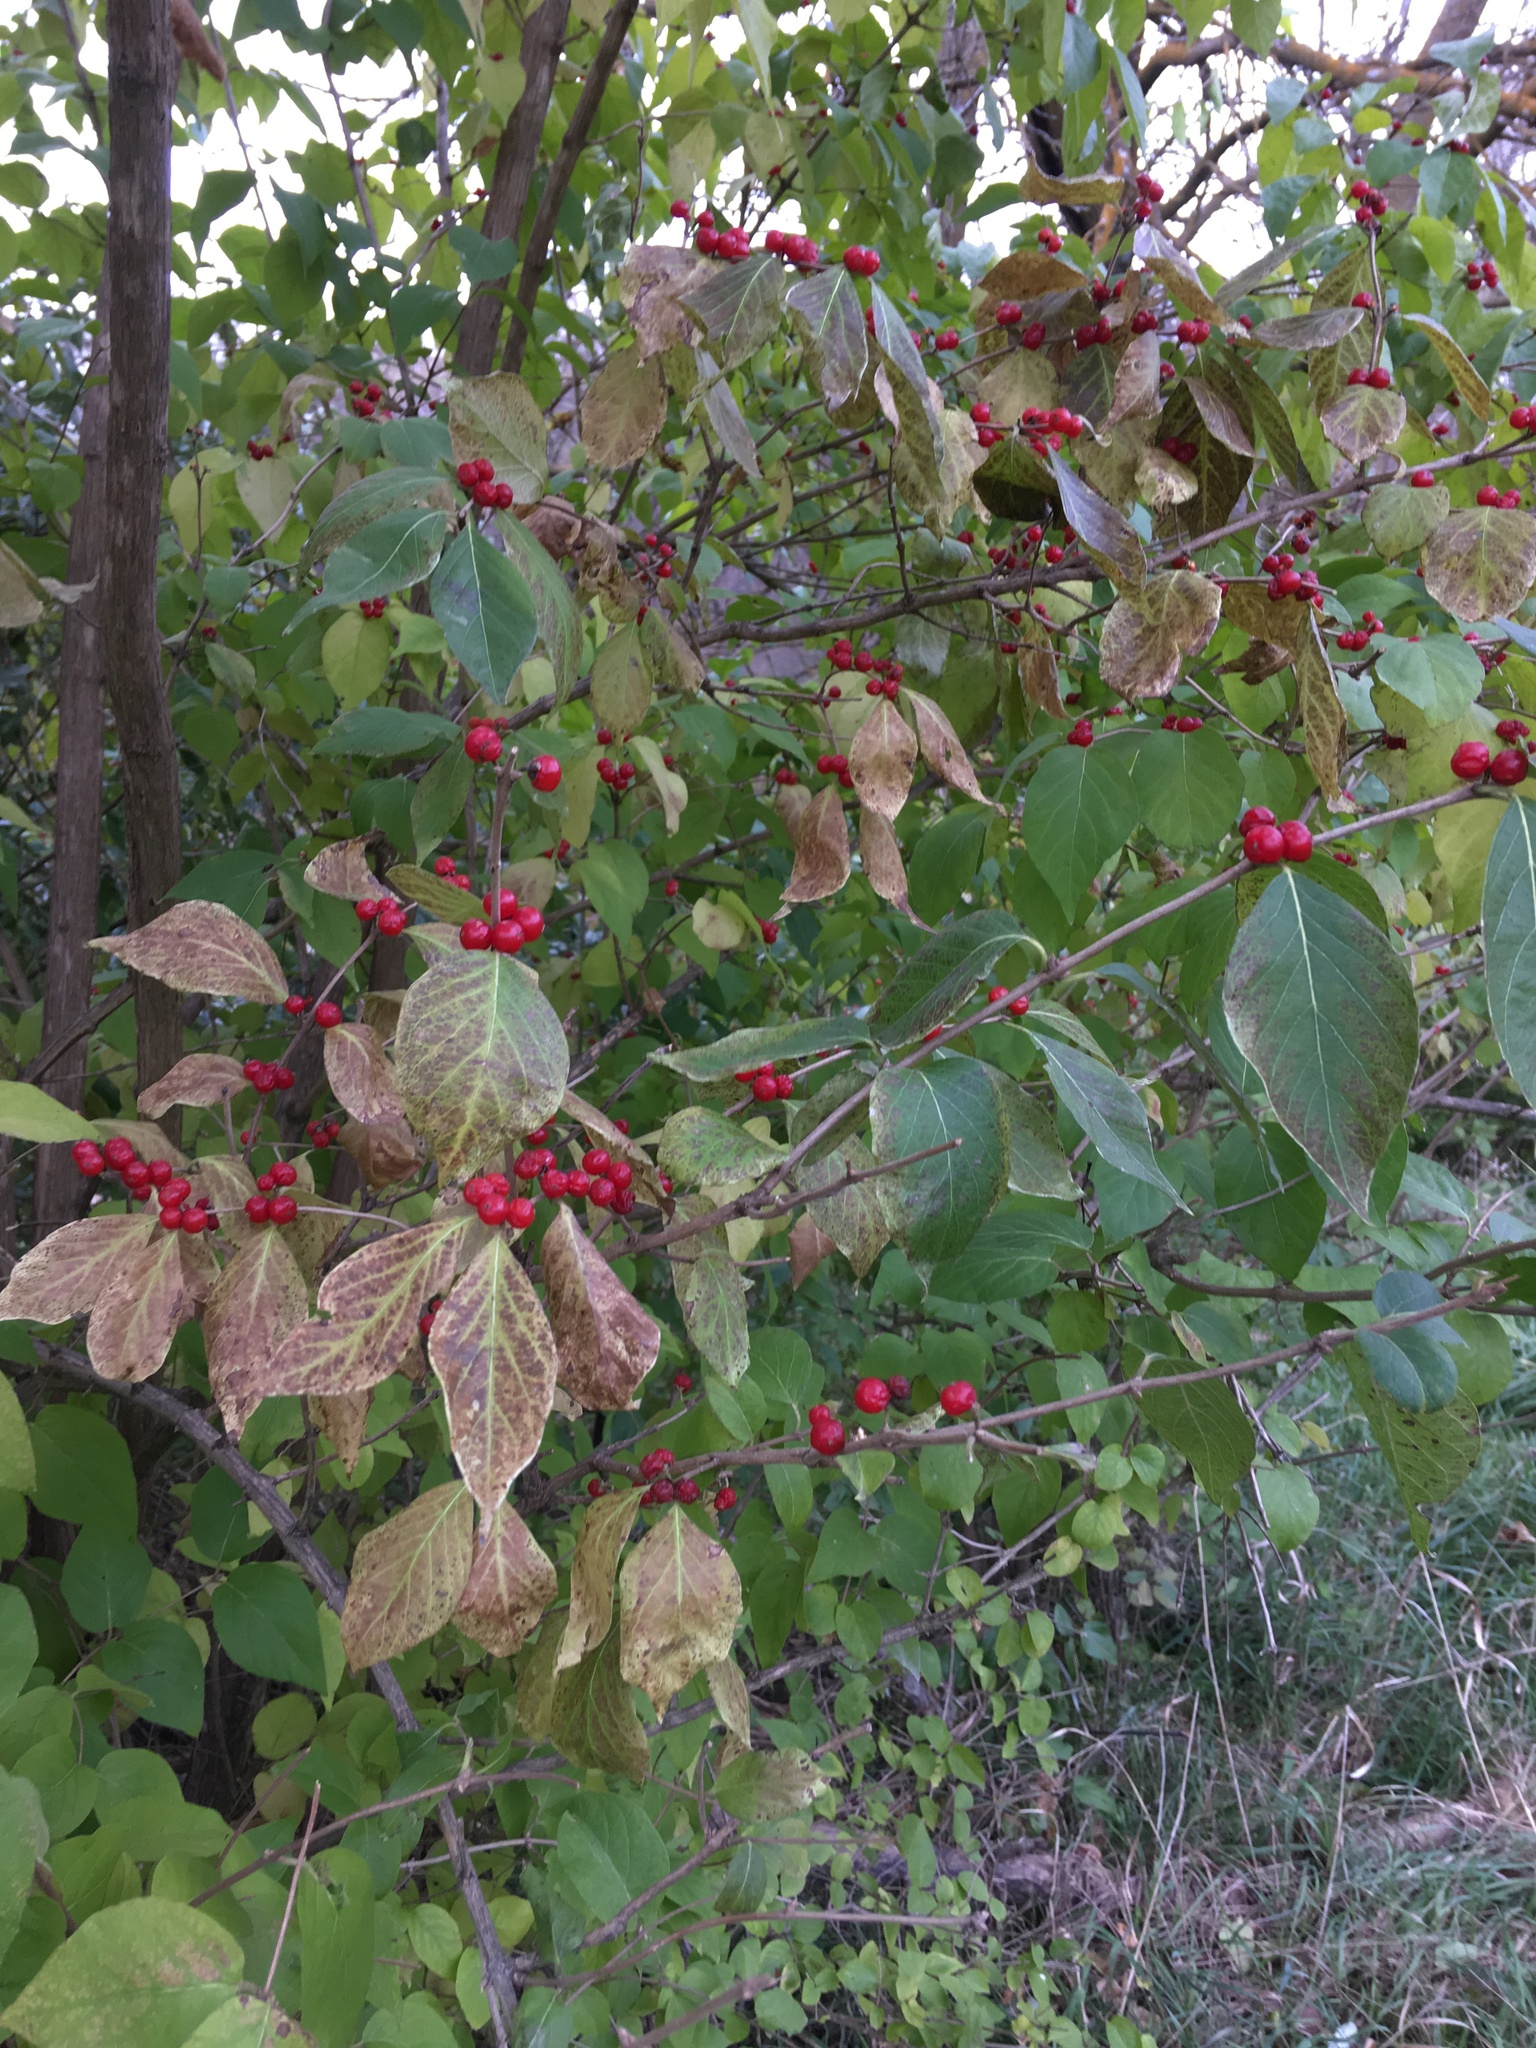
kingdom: Plantae
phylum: Tracheophyta
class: Magnoliopsida
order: Dipsacales
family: Caprifoliaceae
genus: Lonicera
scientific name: Lonicera maackii
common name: Amur honeysuckle
